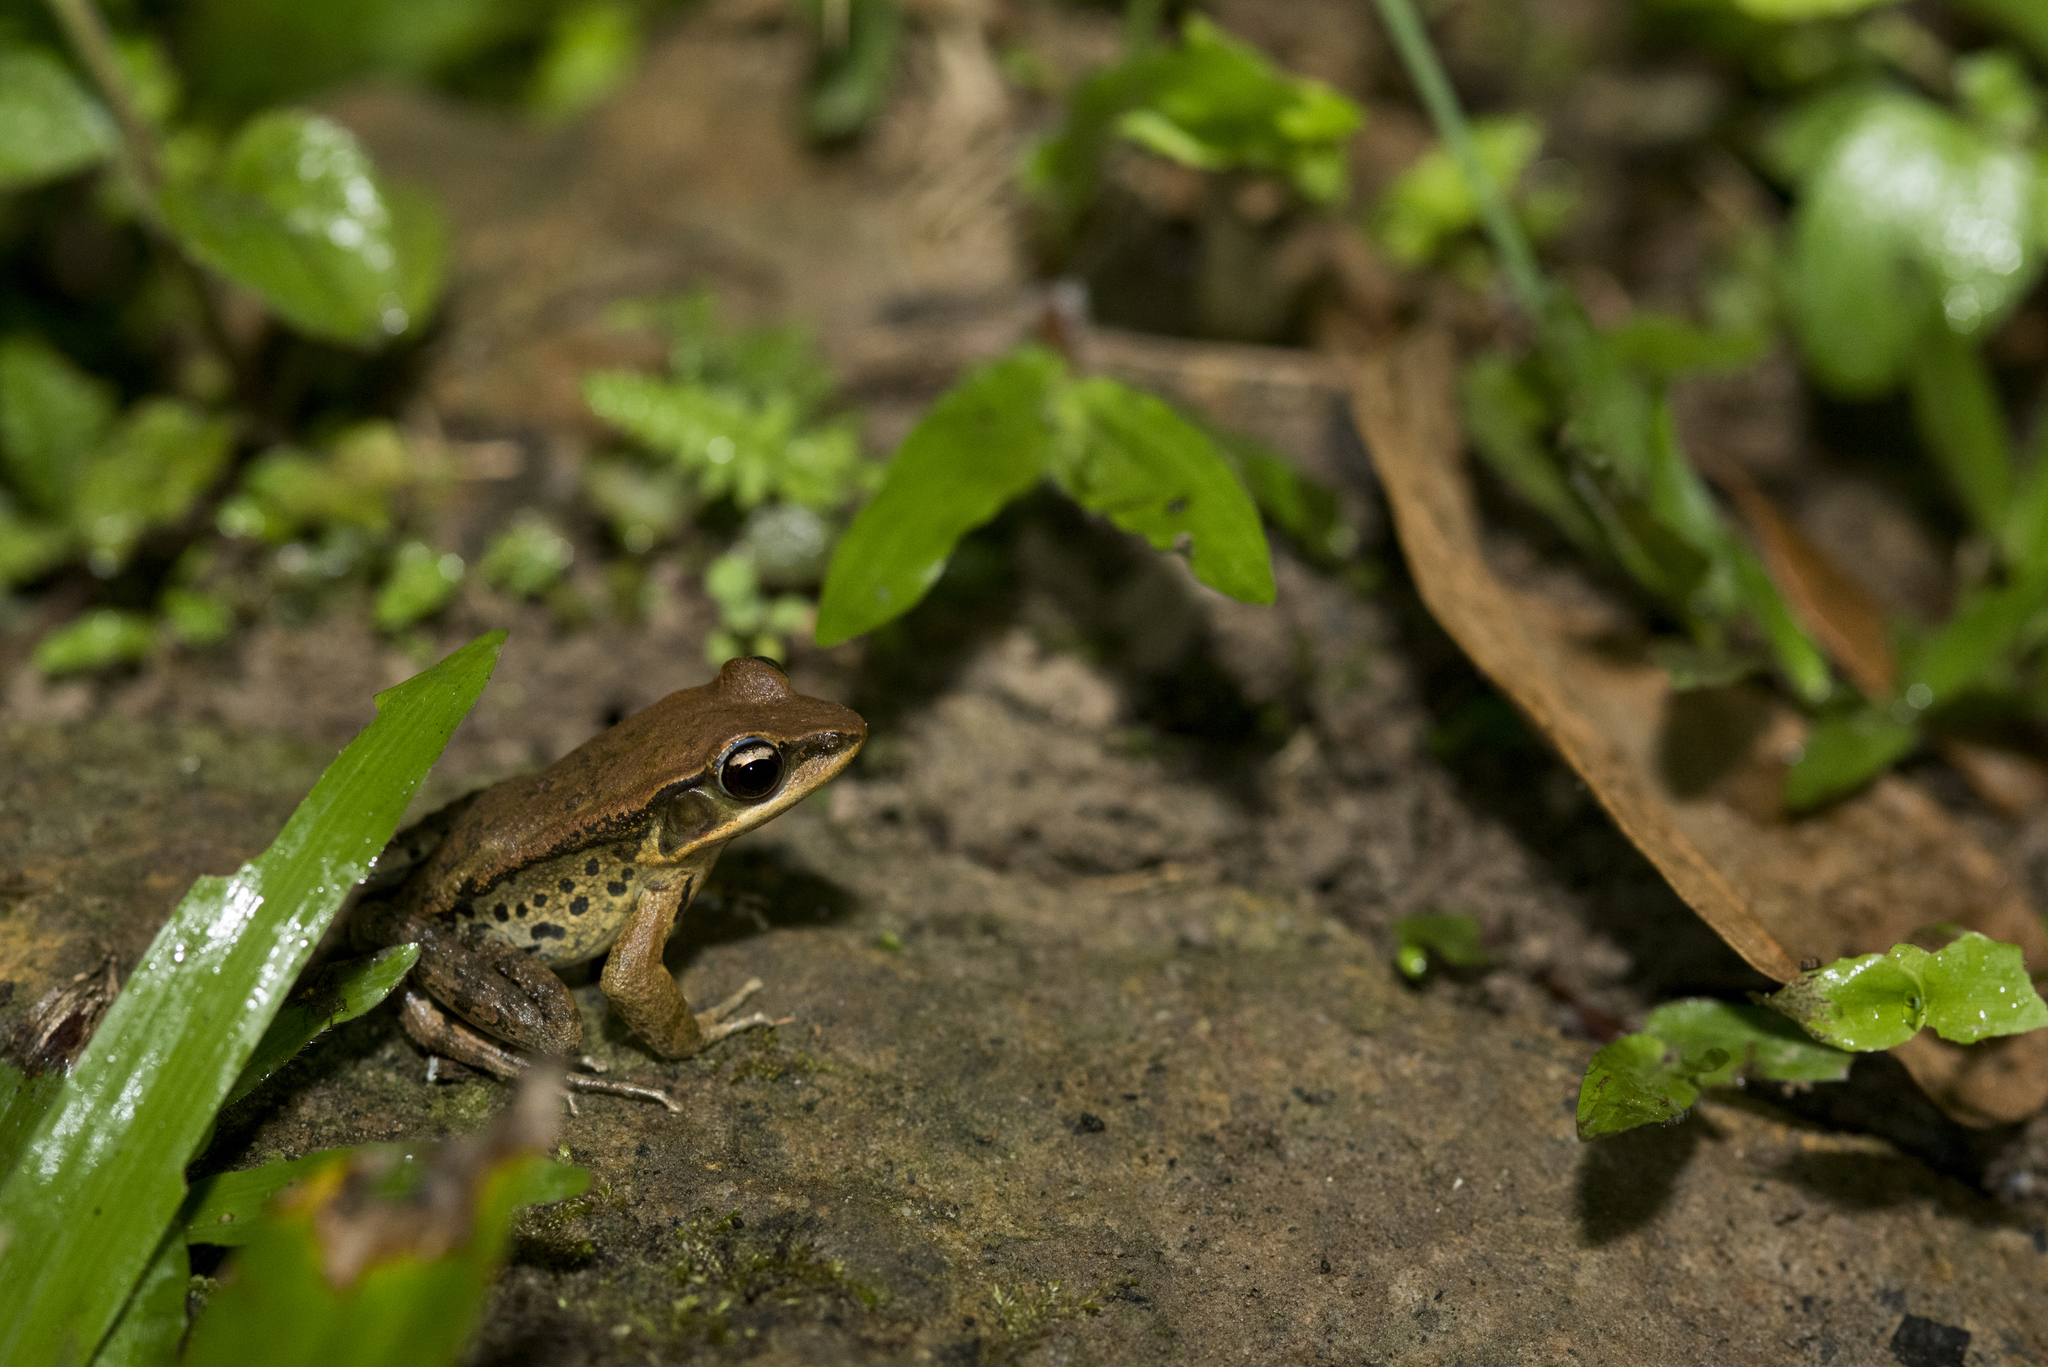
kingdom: Animalia
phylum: Chordata
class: Amphibia
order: Anura
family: Ranidae
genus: Hylarana
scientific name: Hylarana latouchii
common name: Broad-folded frog
